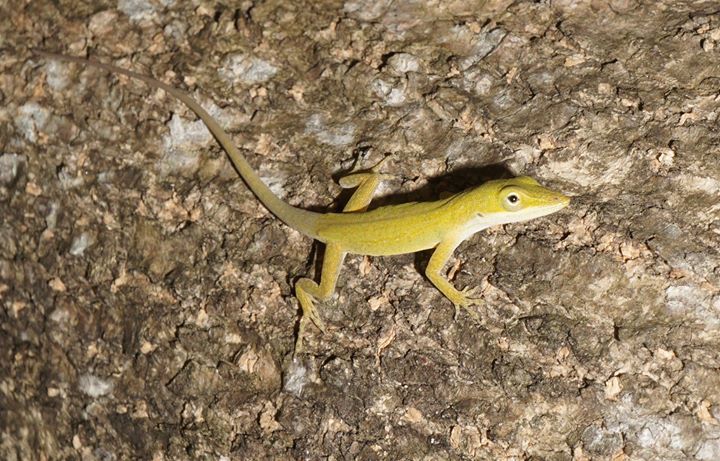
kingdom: Animalia
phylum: Chordata
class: Squamata
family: Dactyloidae
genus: Anolis
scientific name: Anolis carolinensis
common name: Green anole
